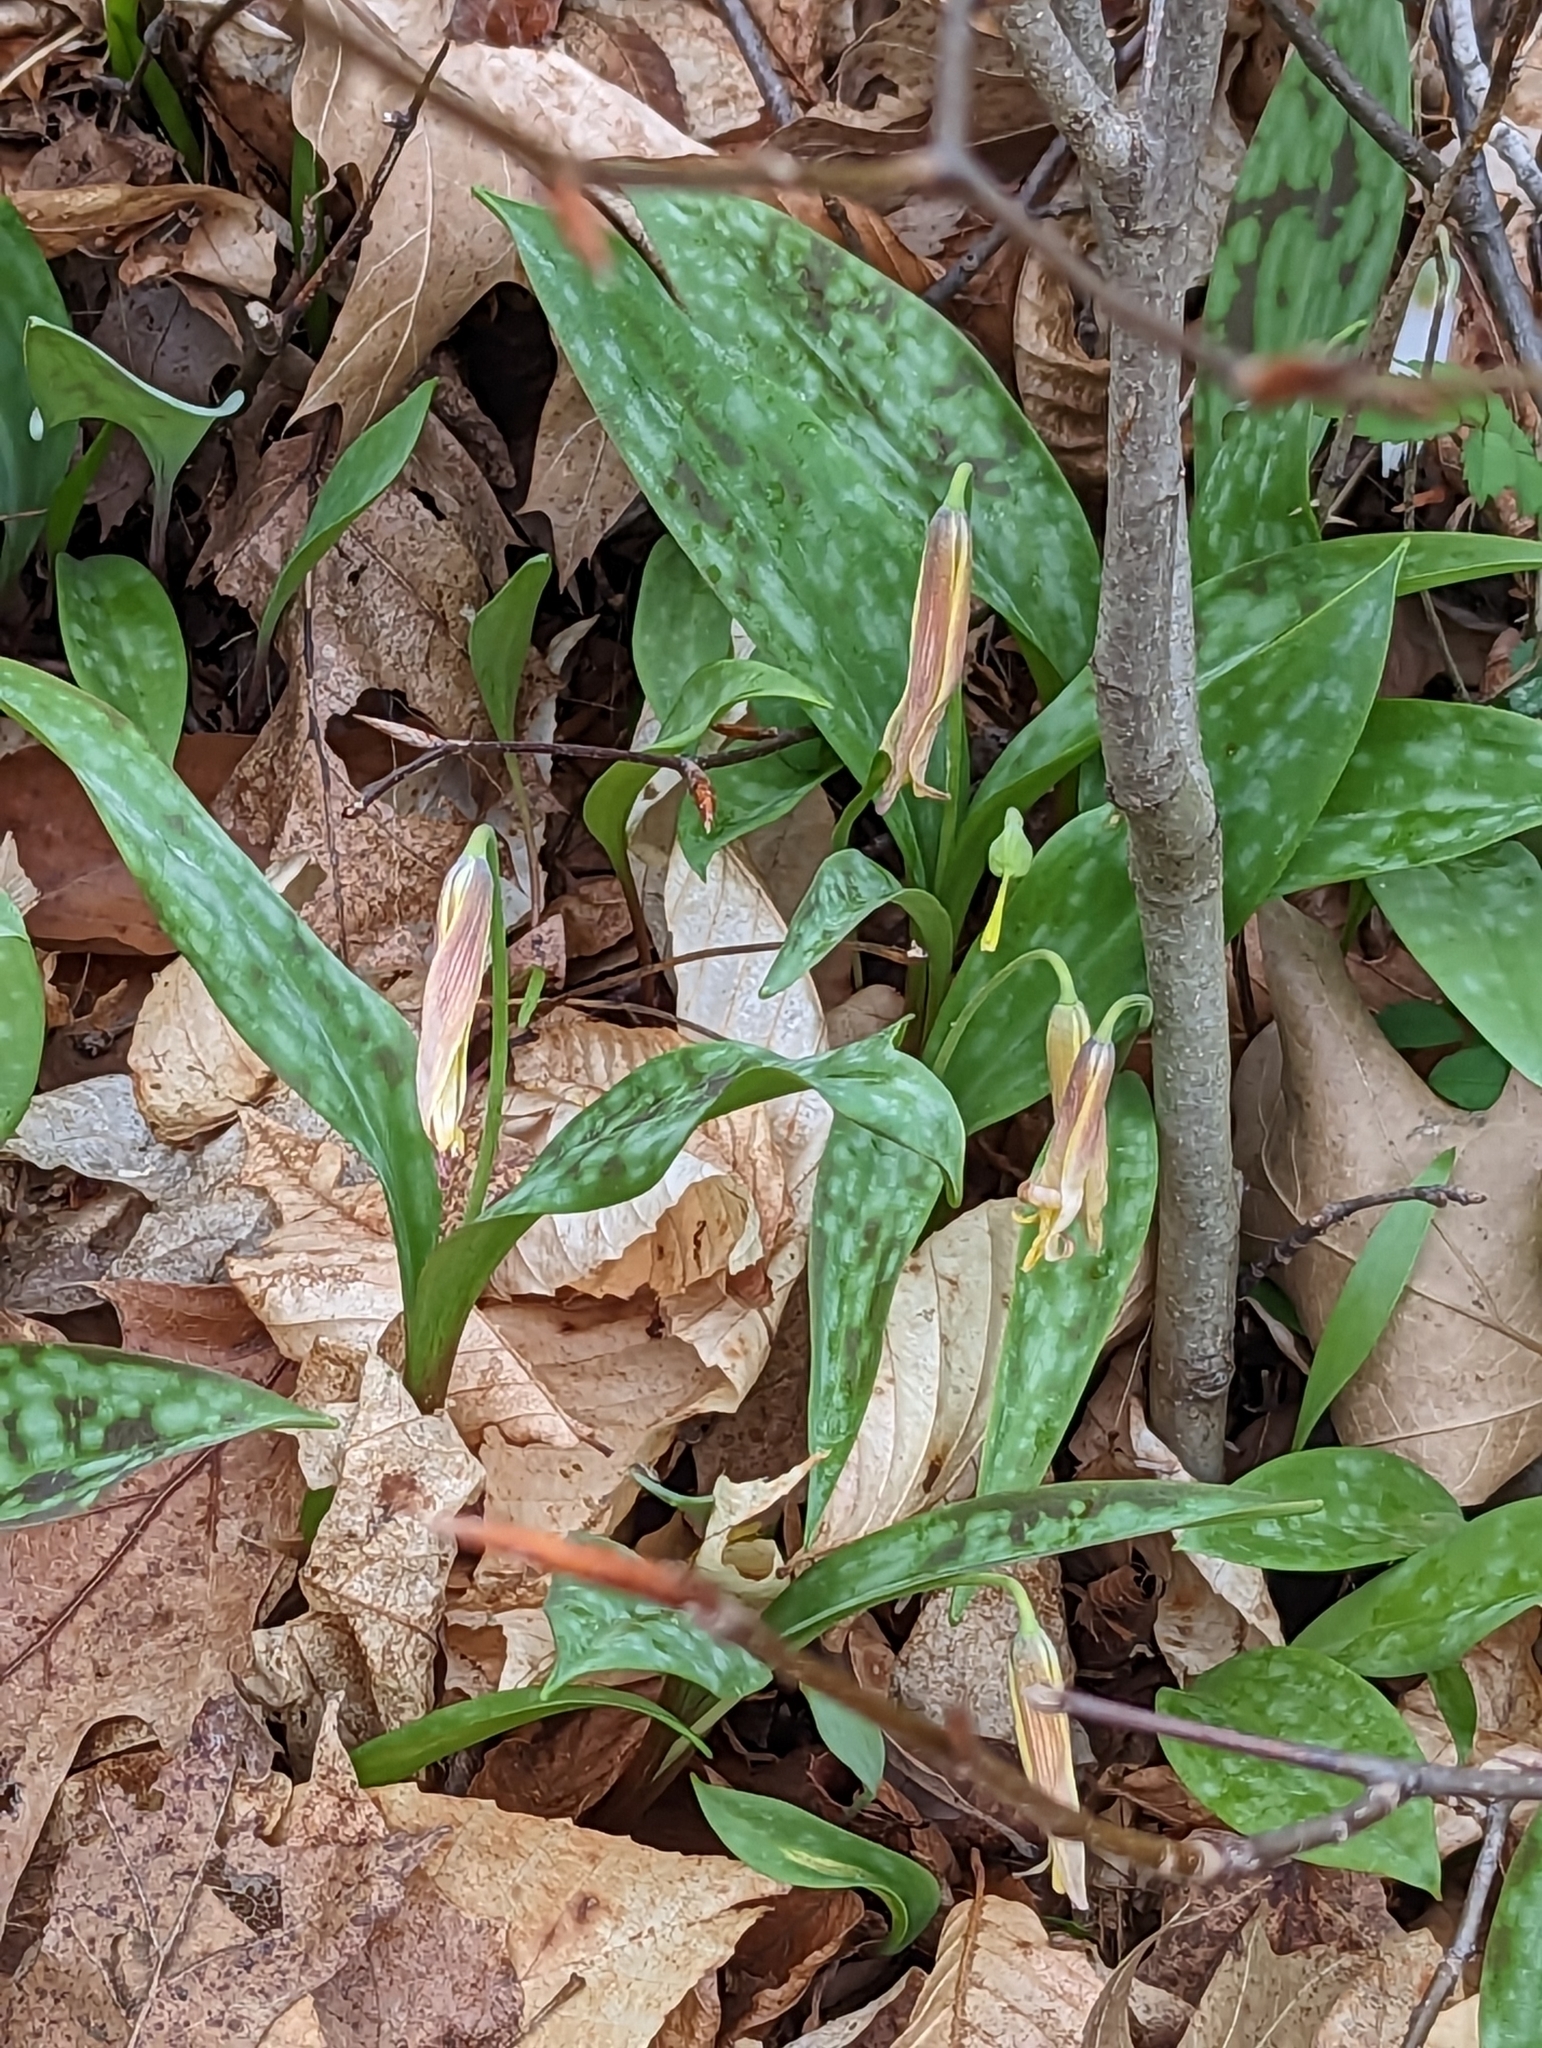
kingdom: Plantae
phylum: Tracheophyta
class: Liliopsida
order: Liliales
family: Liliaceae
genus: Erythronium
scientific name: Erythronium americanum
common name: Yellow adder's-tongue
